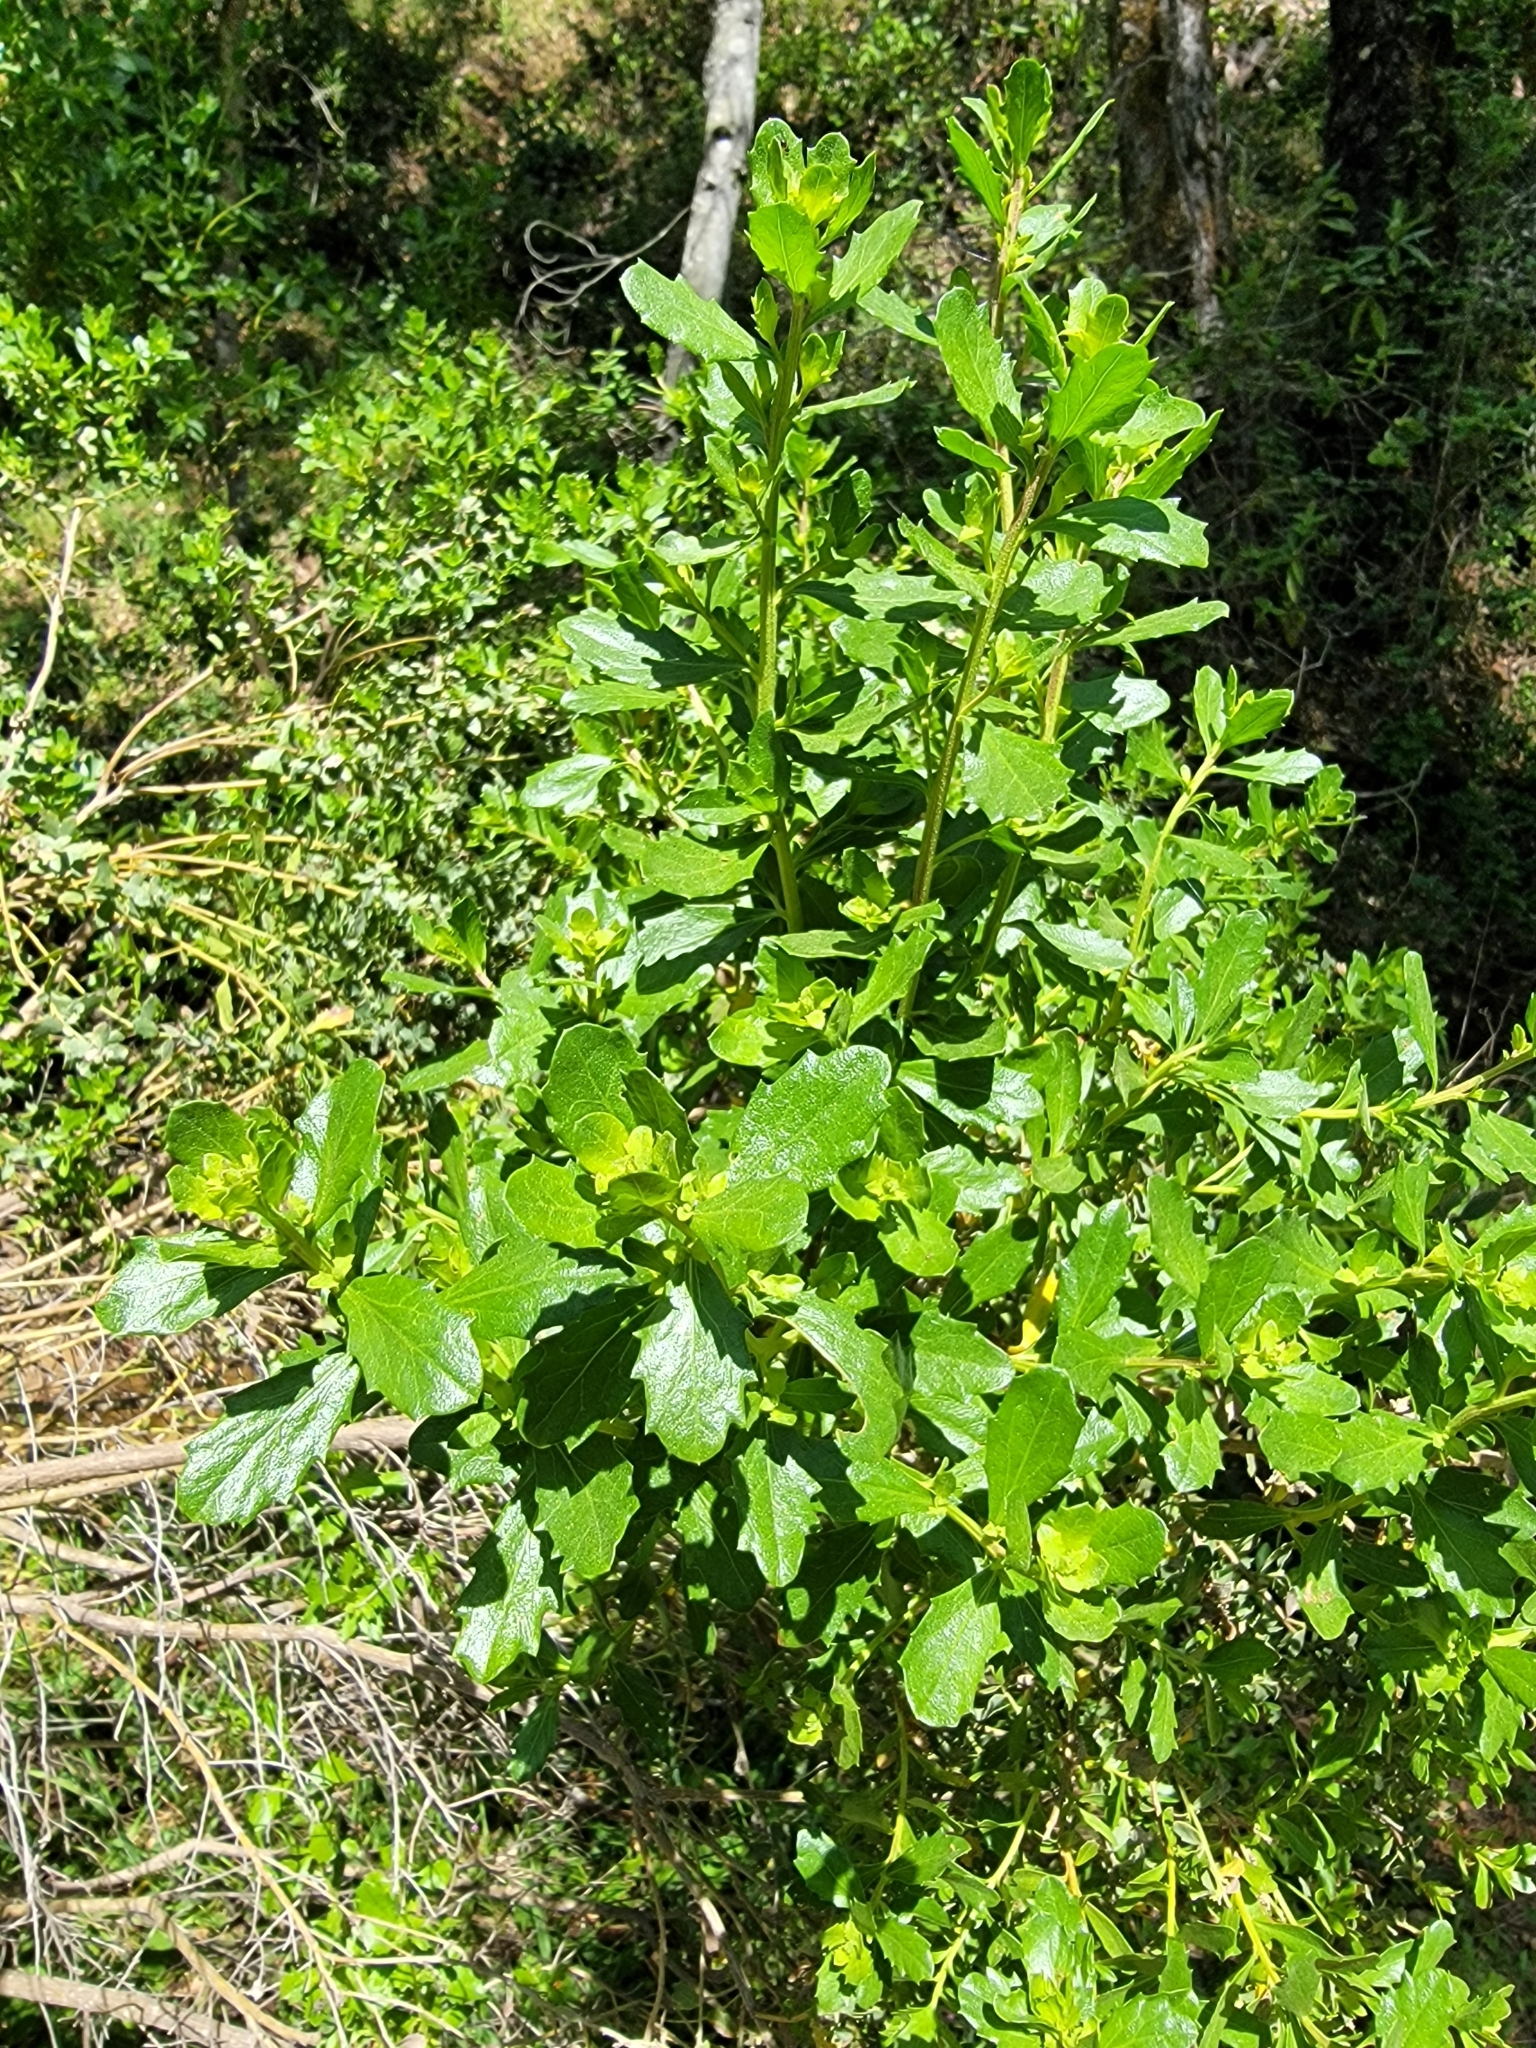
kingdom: Plantae
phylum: Tracheophyta
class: Magnoliopsida
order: Asterales
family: Asteraceae
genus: Baccharis
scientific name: Baccharis pilularis
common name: Coyotebrush
